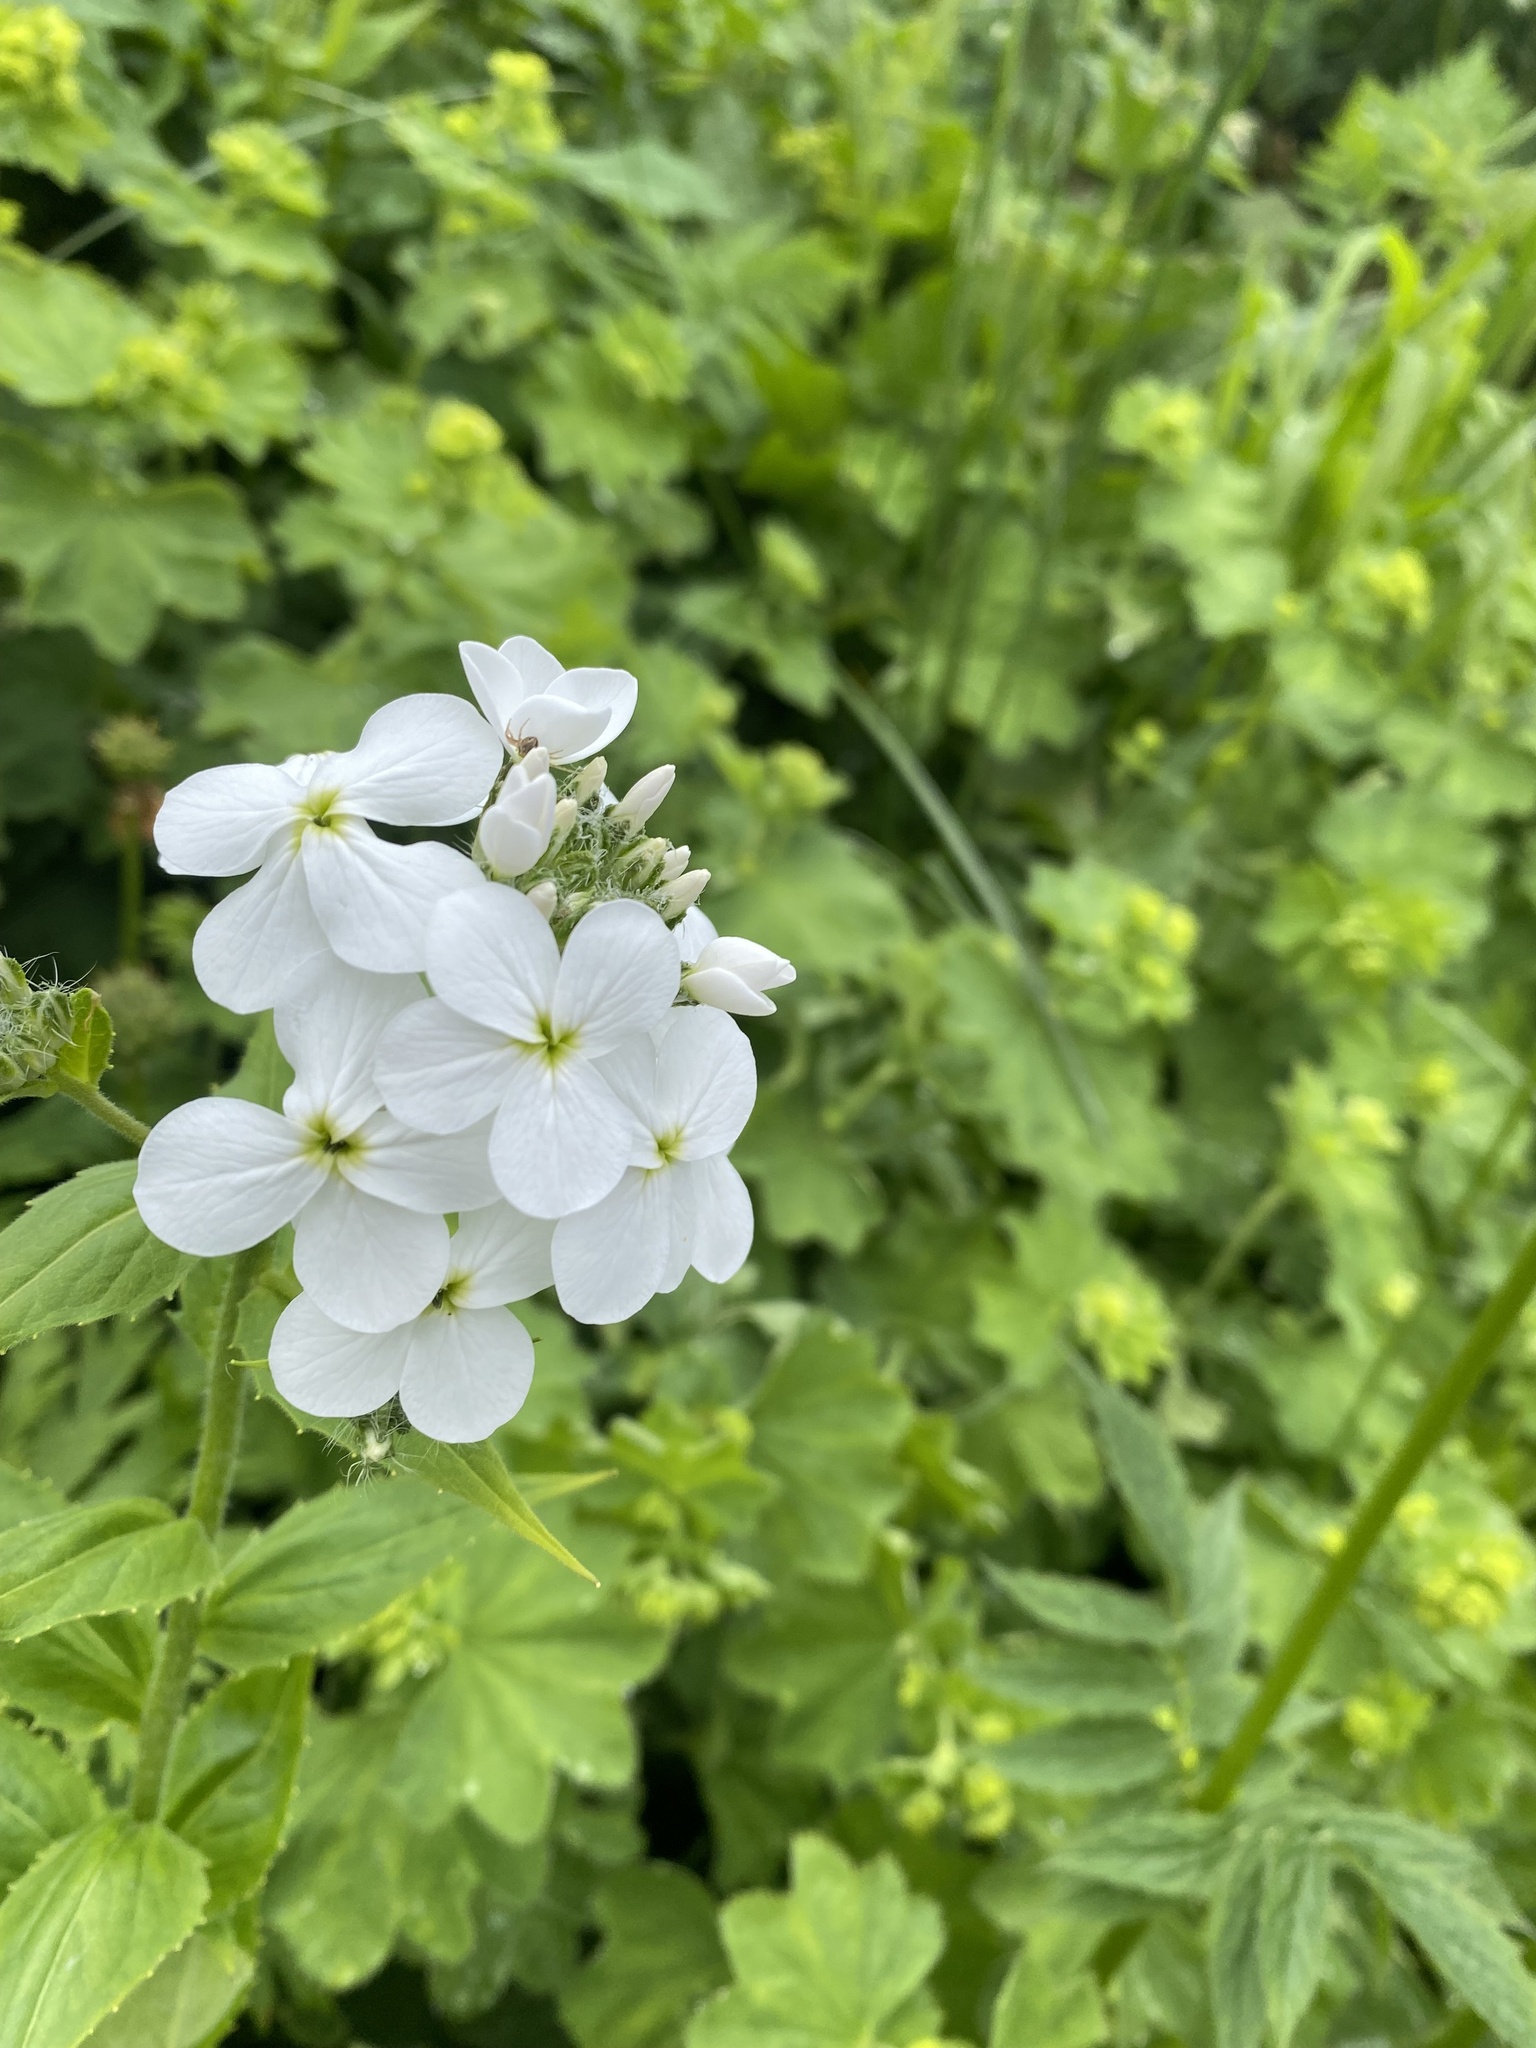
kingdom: Plantae
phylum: Tracheophyta
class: Magnoliopsida
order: Brassicales
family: Brassicaceae
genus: Hesperis
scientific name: Hesperis matronalis
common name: Dame's-violet
